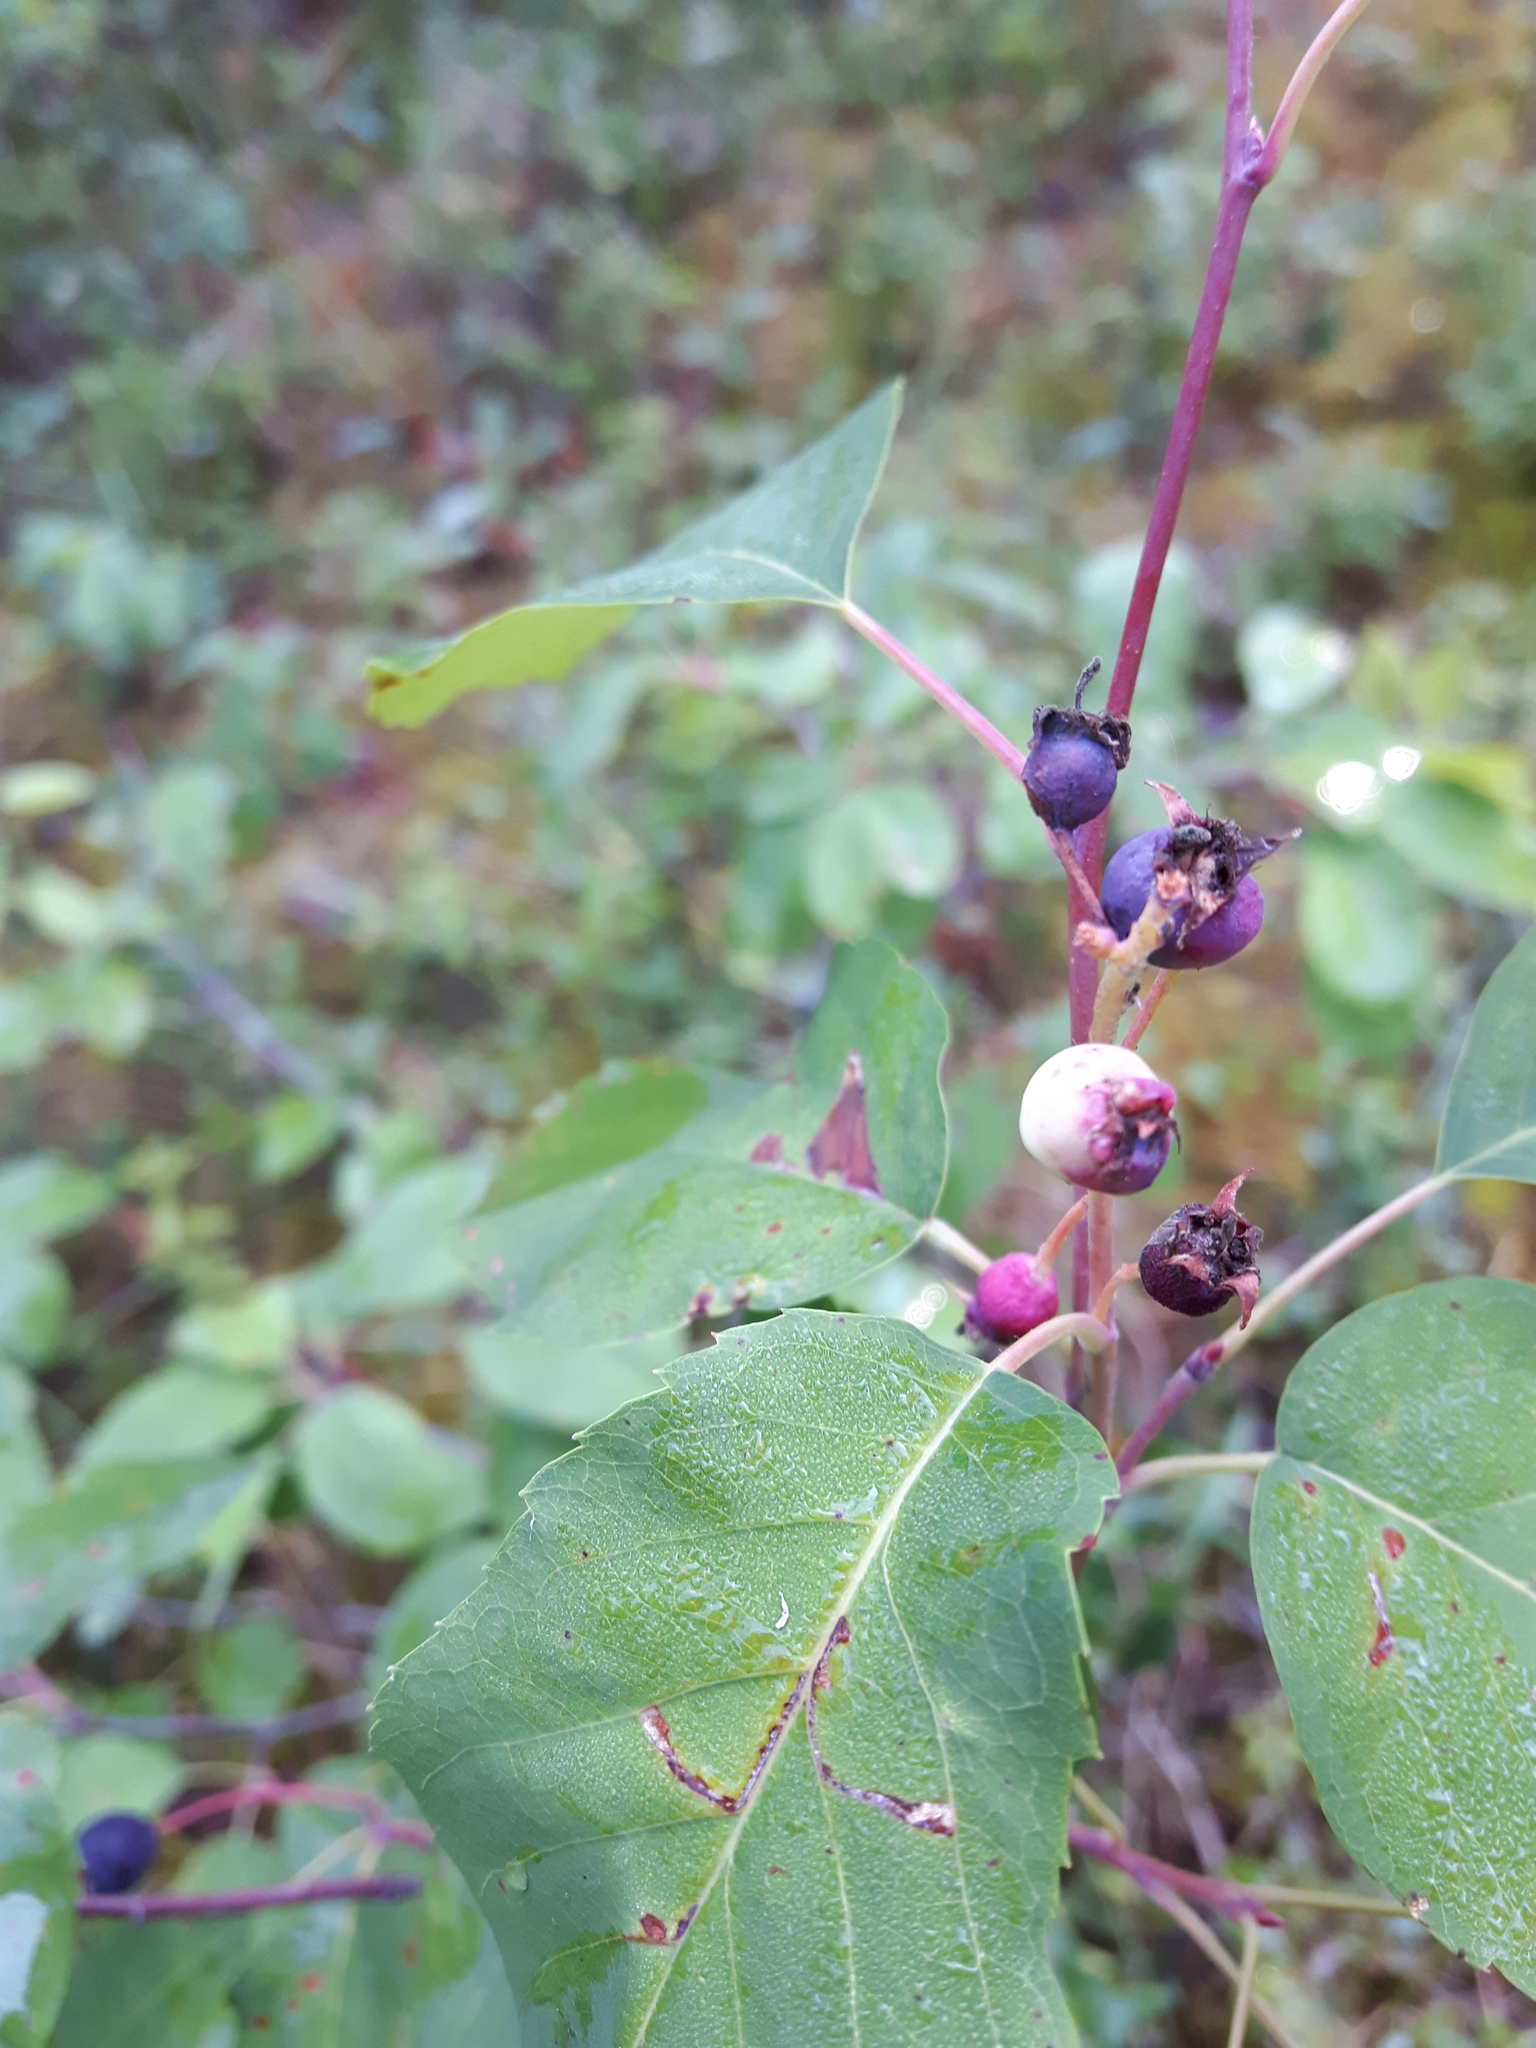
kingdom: Plantae
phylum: Tracheophyta
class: Magnoliopsida
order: Rosales
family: Rosaceae
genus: Amelanchier
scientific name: Amelanchier alnifolia
